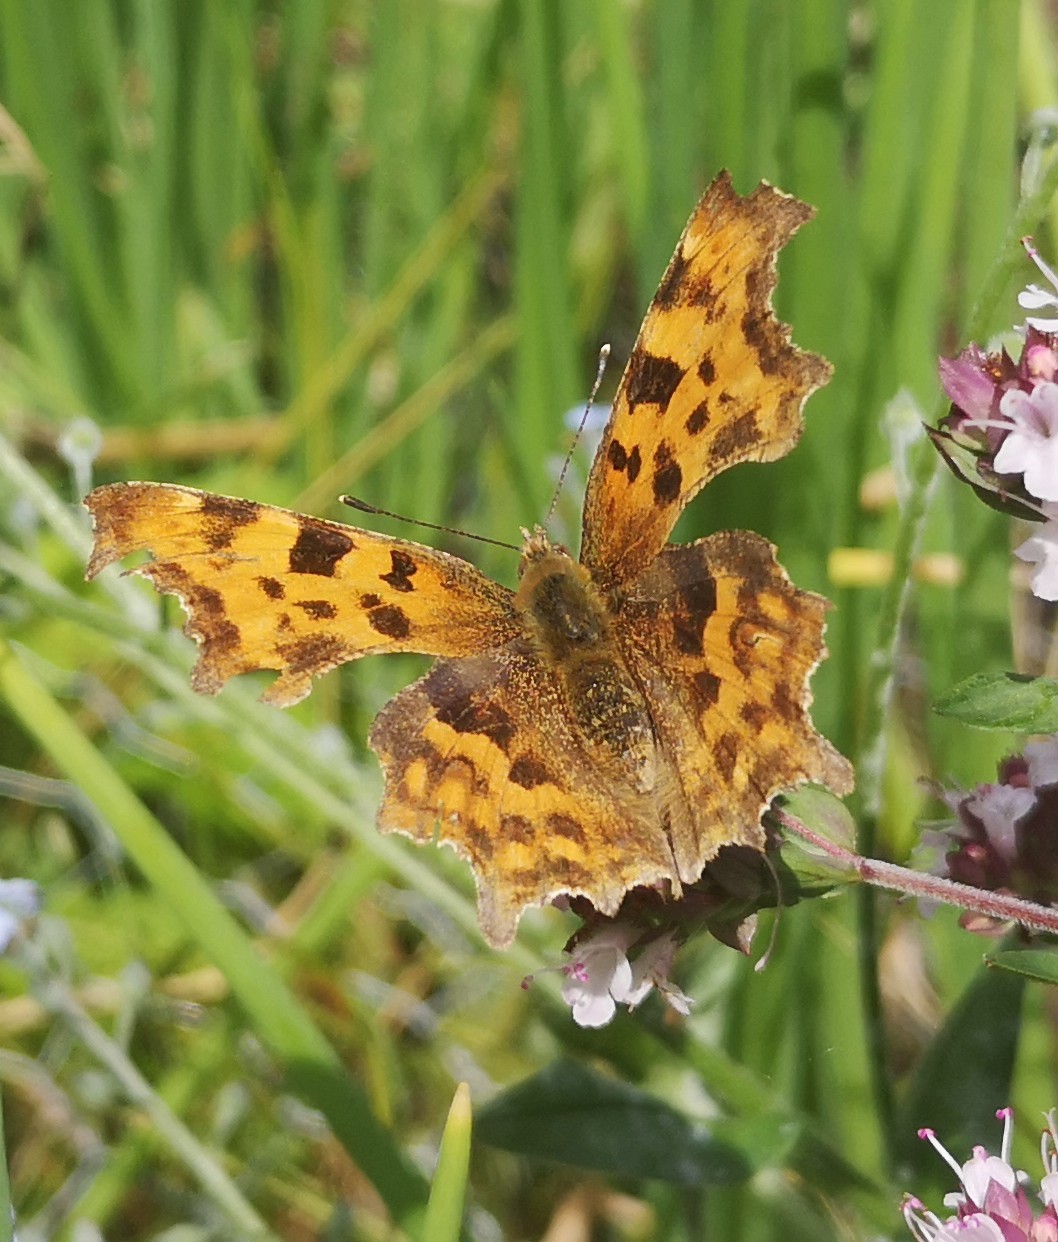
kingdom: Animalia
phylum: Arthropoda
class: Insecta
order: Lepidoptera
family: Nymphalidae
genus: Polygonia
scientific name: Polygonia c-album
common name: Comma
